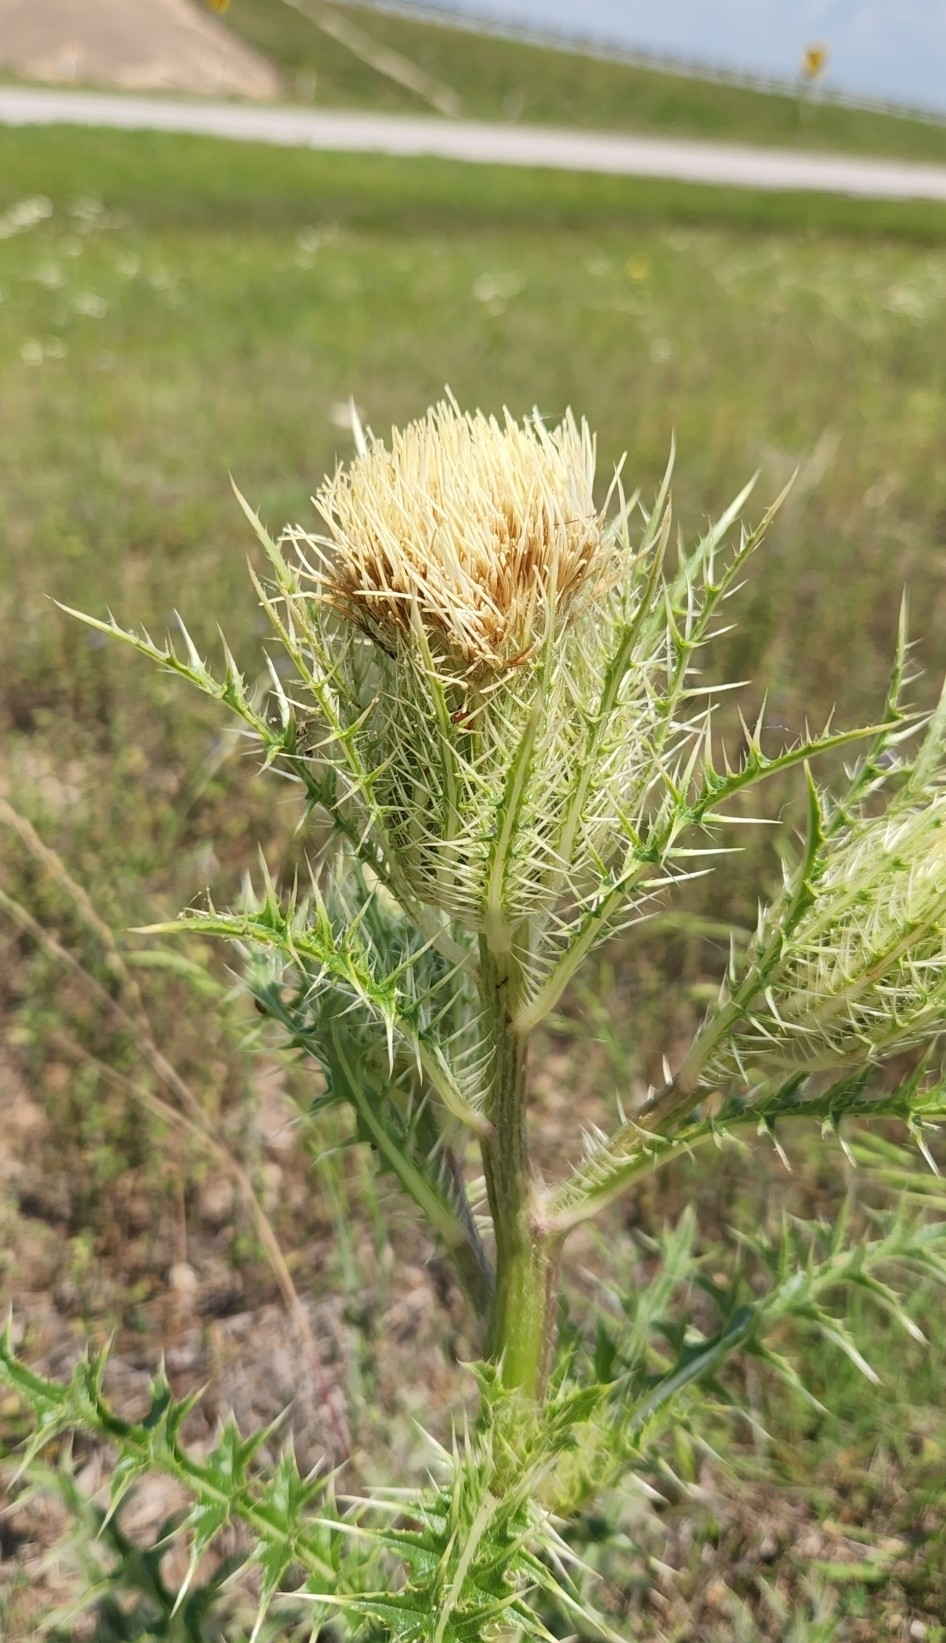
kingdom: Plantae
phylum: Tracheophyta
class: Magnoliopsida
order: Asterales
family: Asteraceae
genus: Cirsium
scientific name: Cirsium horridulum
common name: Bristly thistle
